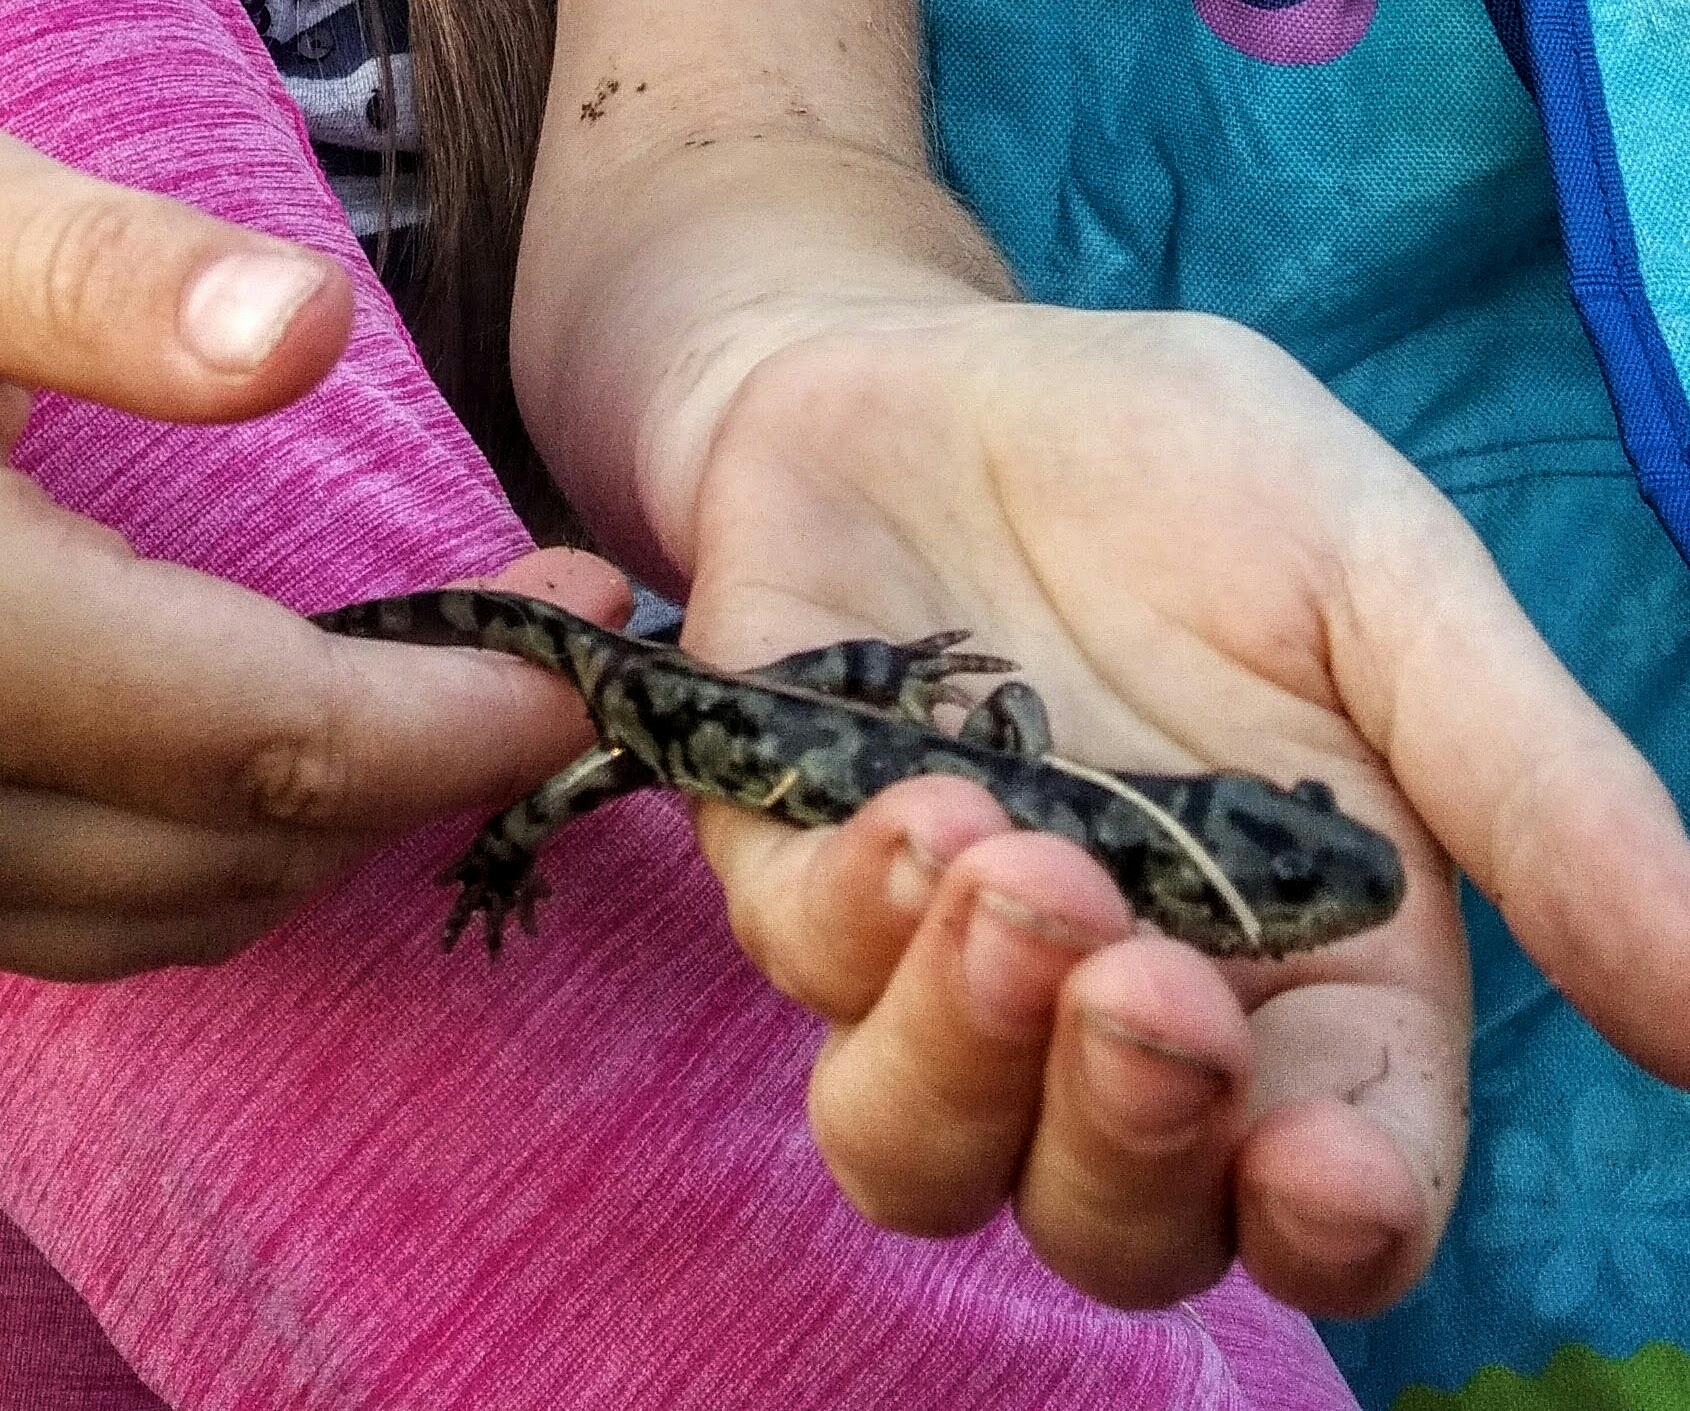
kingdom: Animalia
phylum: Chordata
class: Amphibia
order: Caudata
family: Ambystomatidae
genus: Ambystoma
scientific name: Ambystoma mavortium
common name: Western tiger salamander
